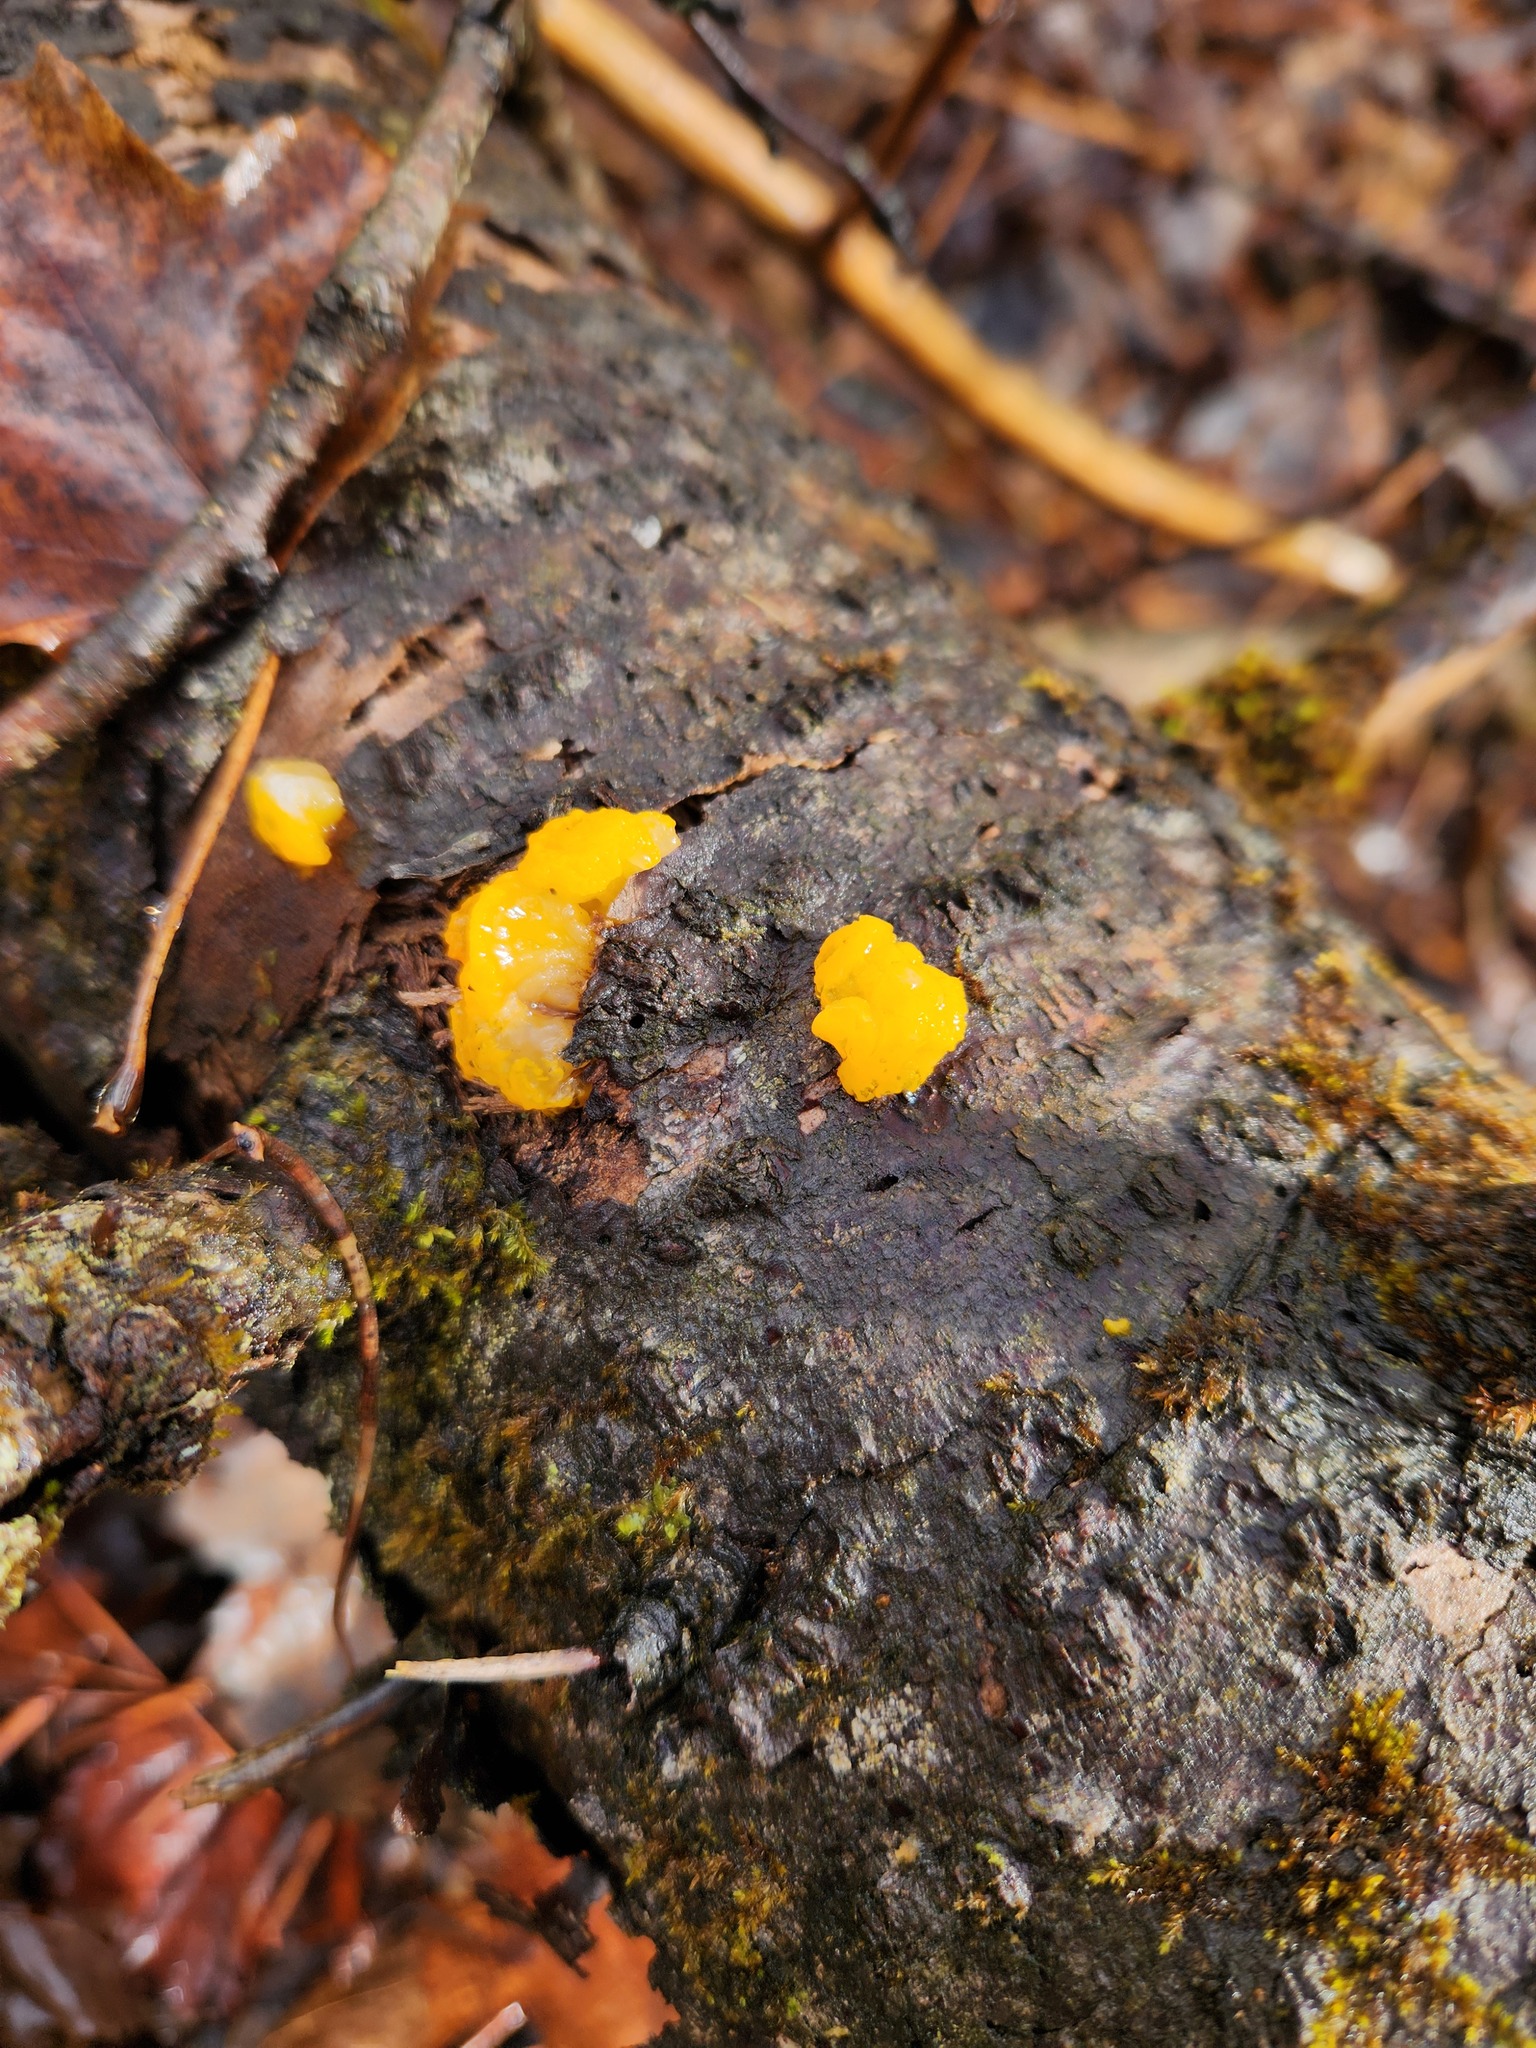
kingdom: Fungi
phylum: Basidiomycota
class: Dacrymycetes
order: Dacrymycetales
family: Dacrymycetaceae
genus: Dacrymyces
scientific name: Dacrymyces chrysospermus
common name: Orange jelly spot
